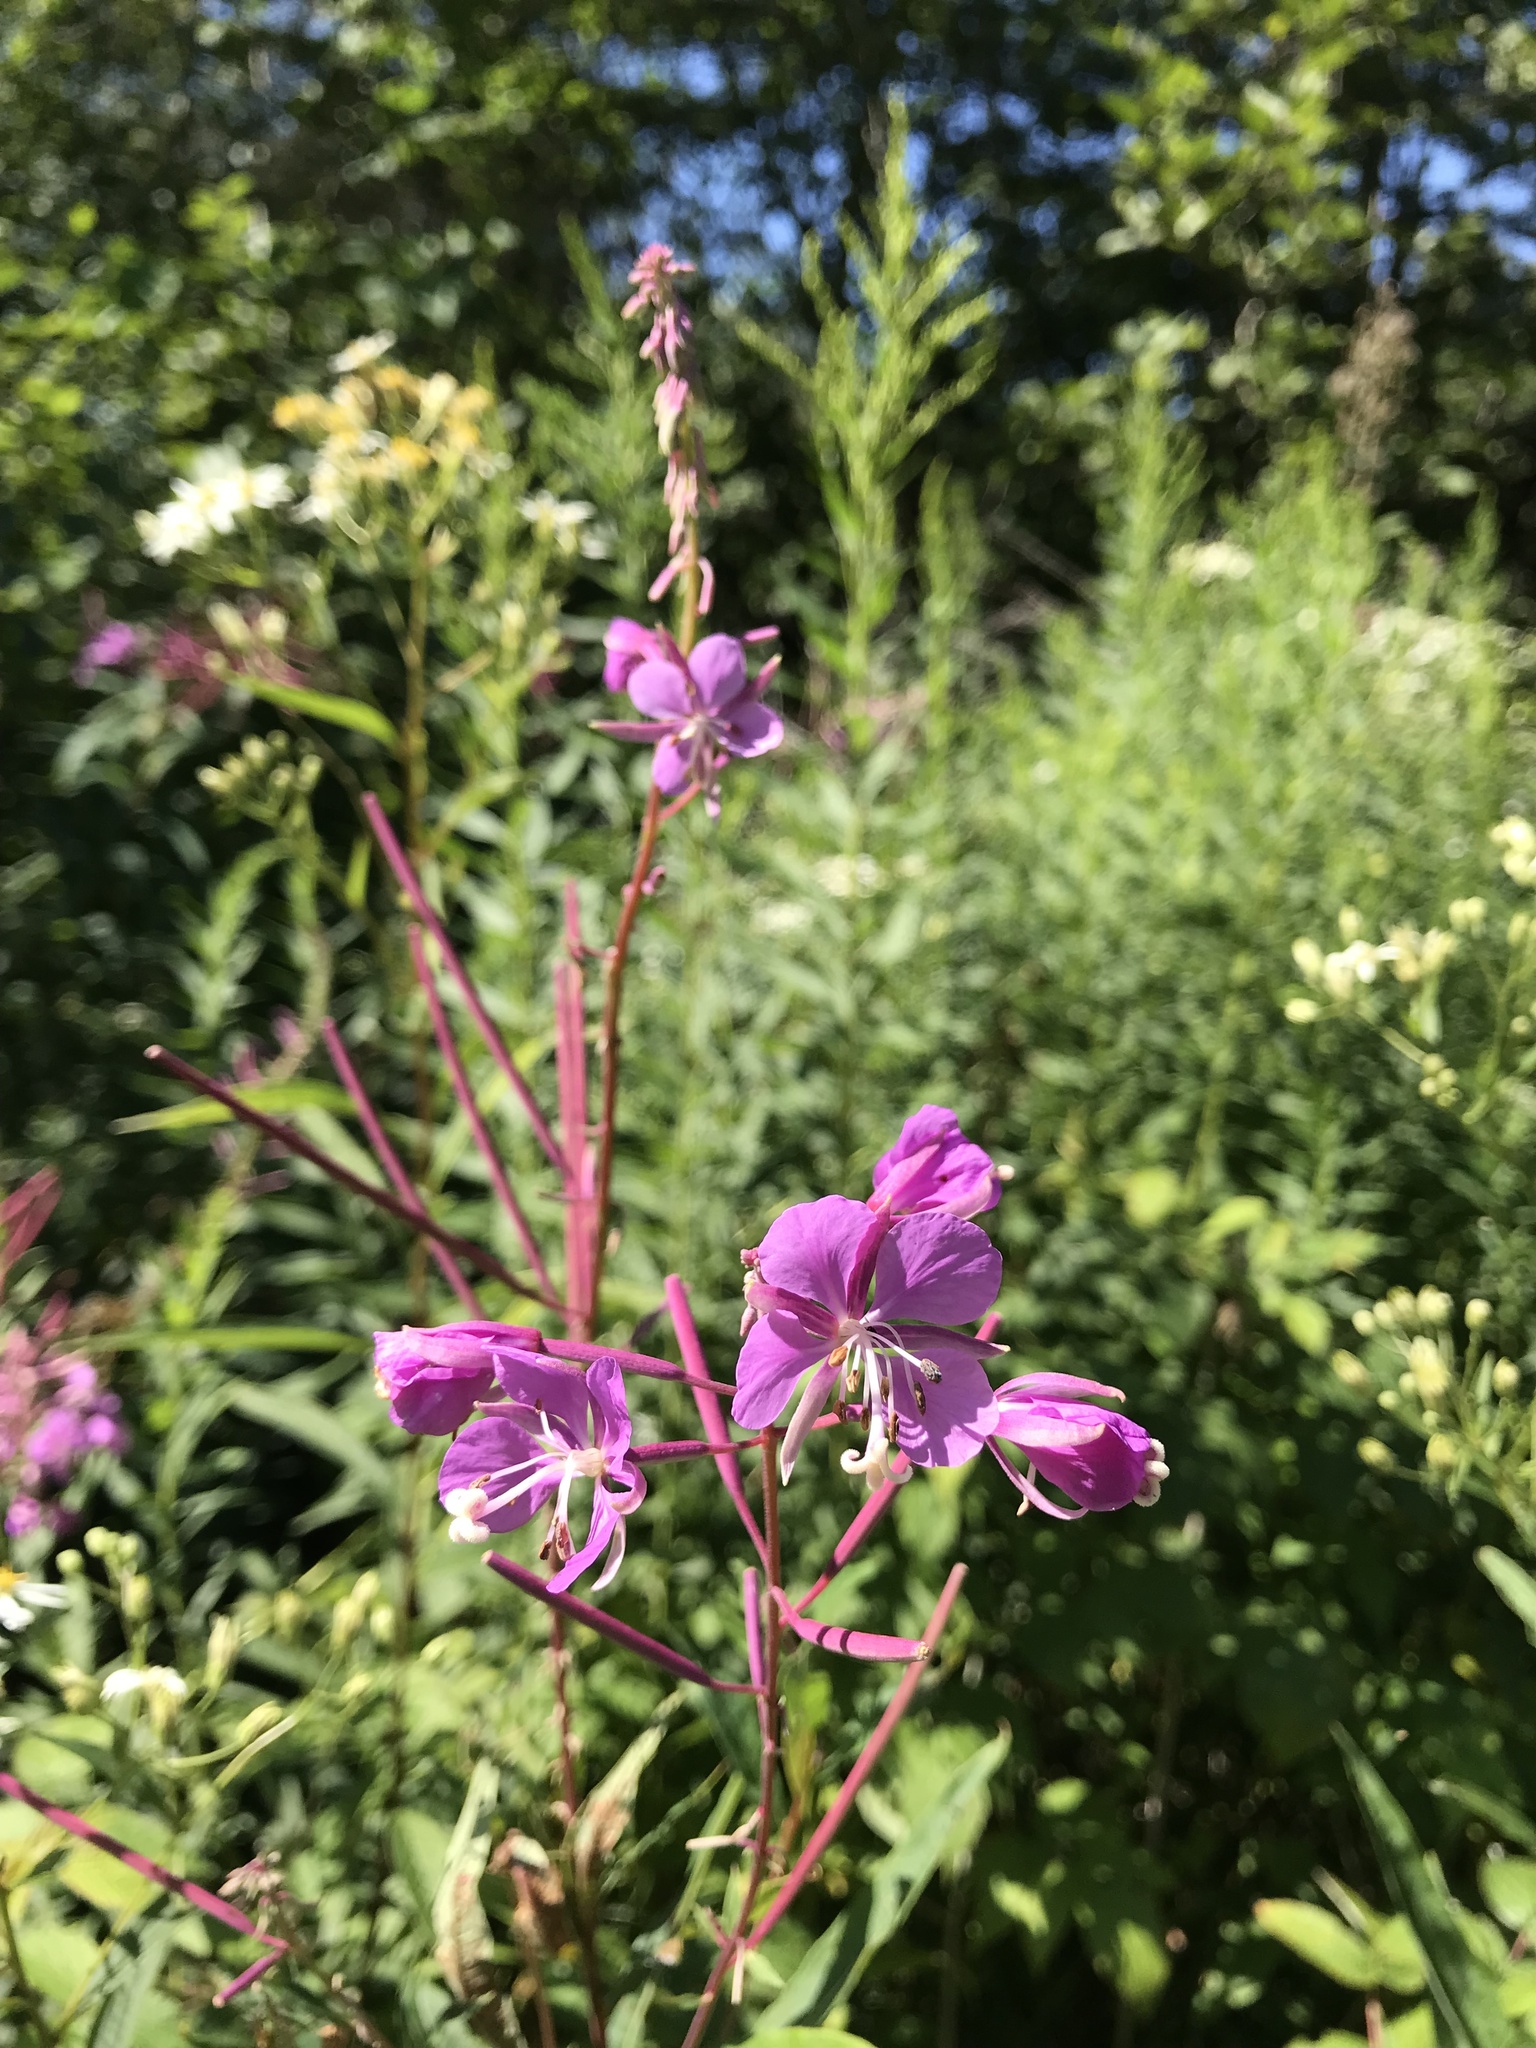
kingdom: Plantae
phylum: Tracheophyta
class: Magnoliopsida
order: Myrtales
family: Onagraceae
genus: Chamaenerion
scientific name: Chamaenerion angustifolium
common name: Fireweed
